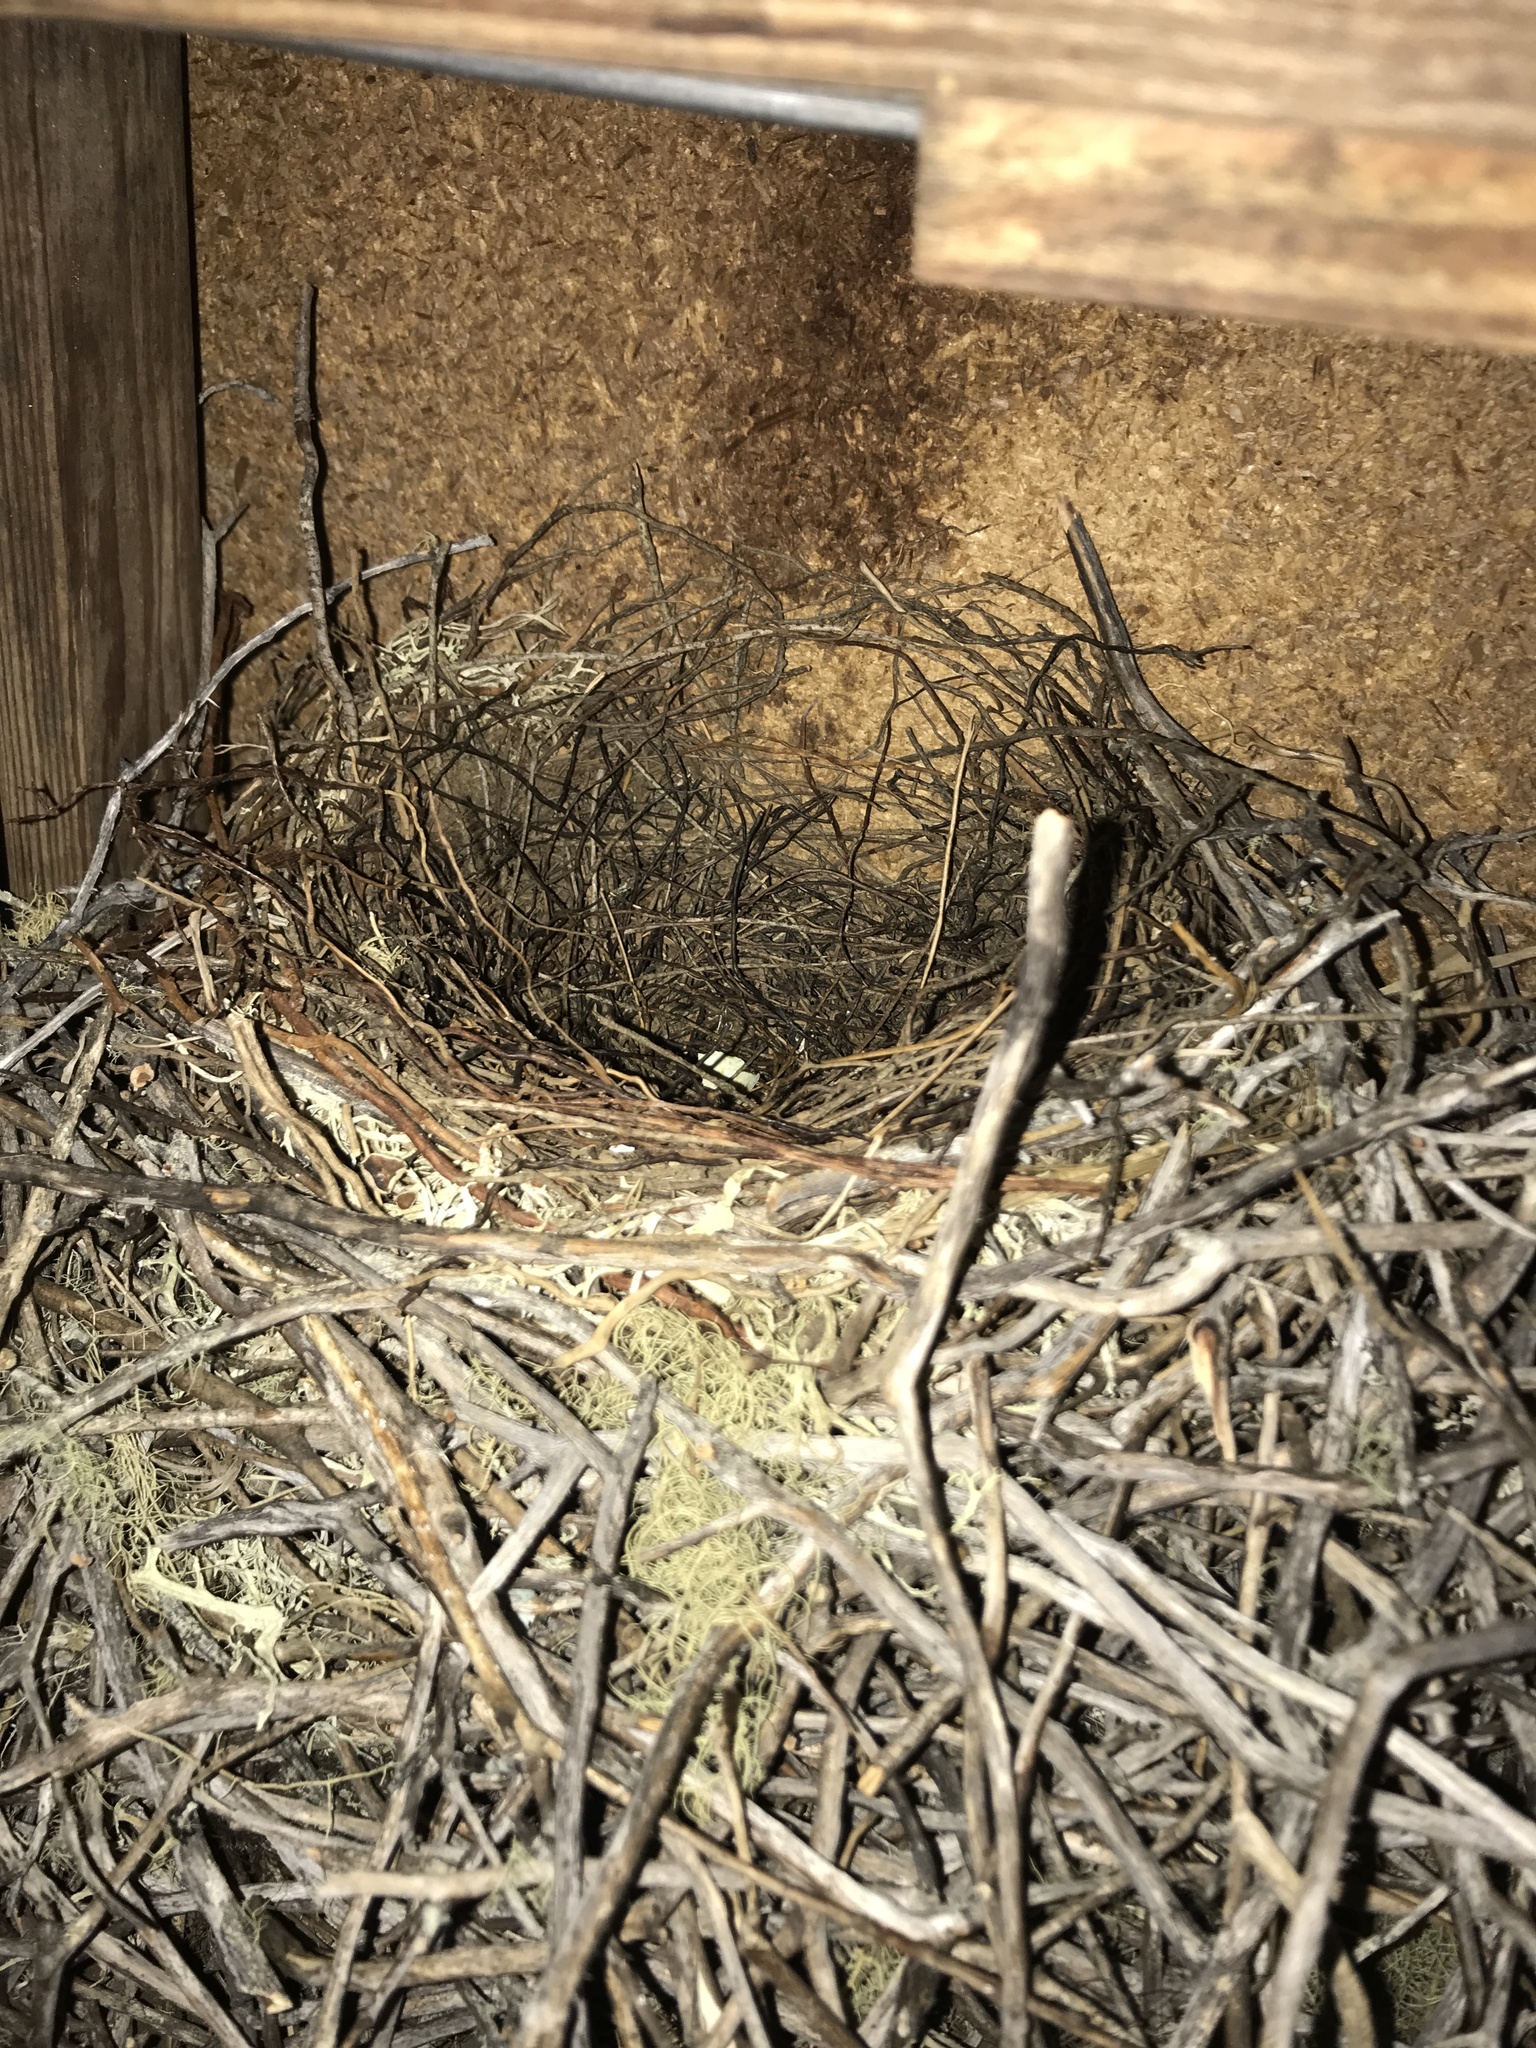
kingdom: Animalia
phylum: Chordata
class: Aves
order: Passeriformes
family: Turdidae
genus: Turdus
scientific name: Turdus migratorius
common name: American robin
